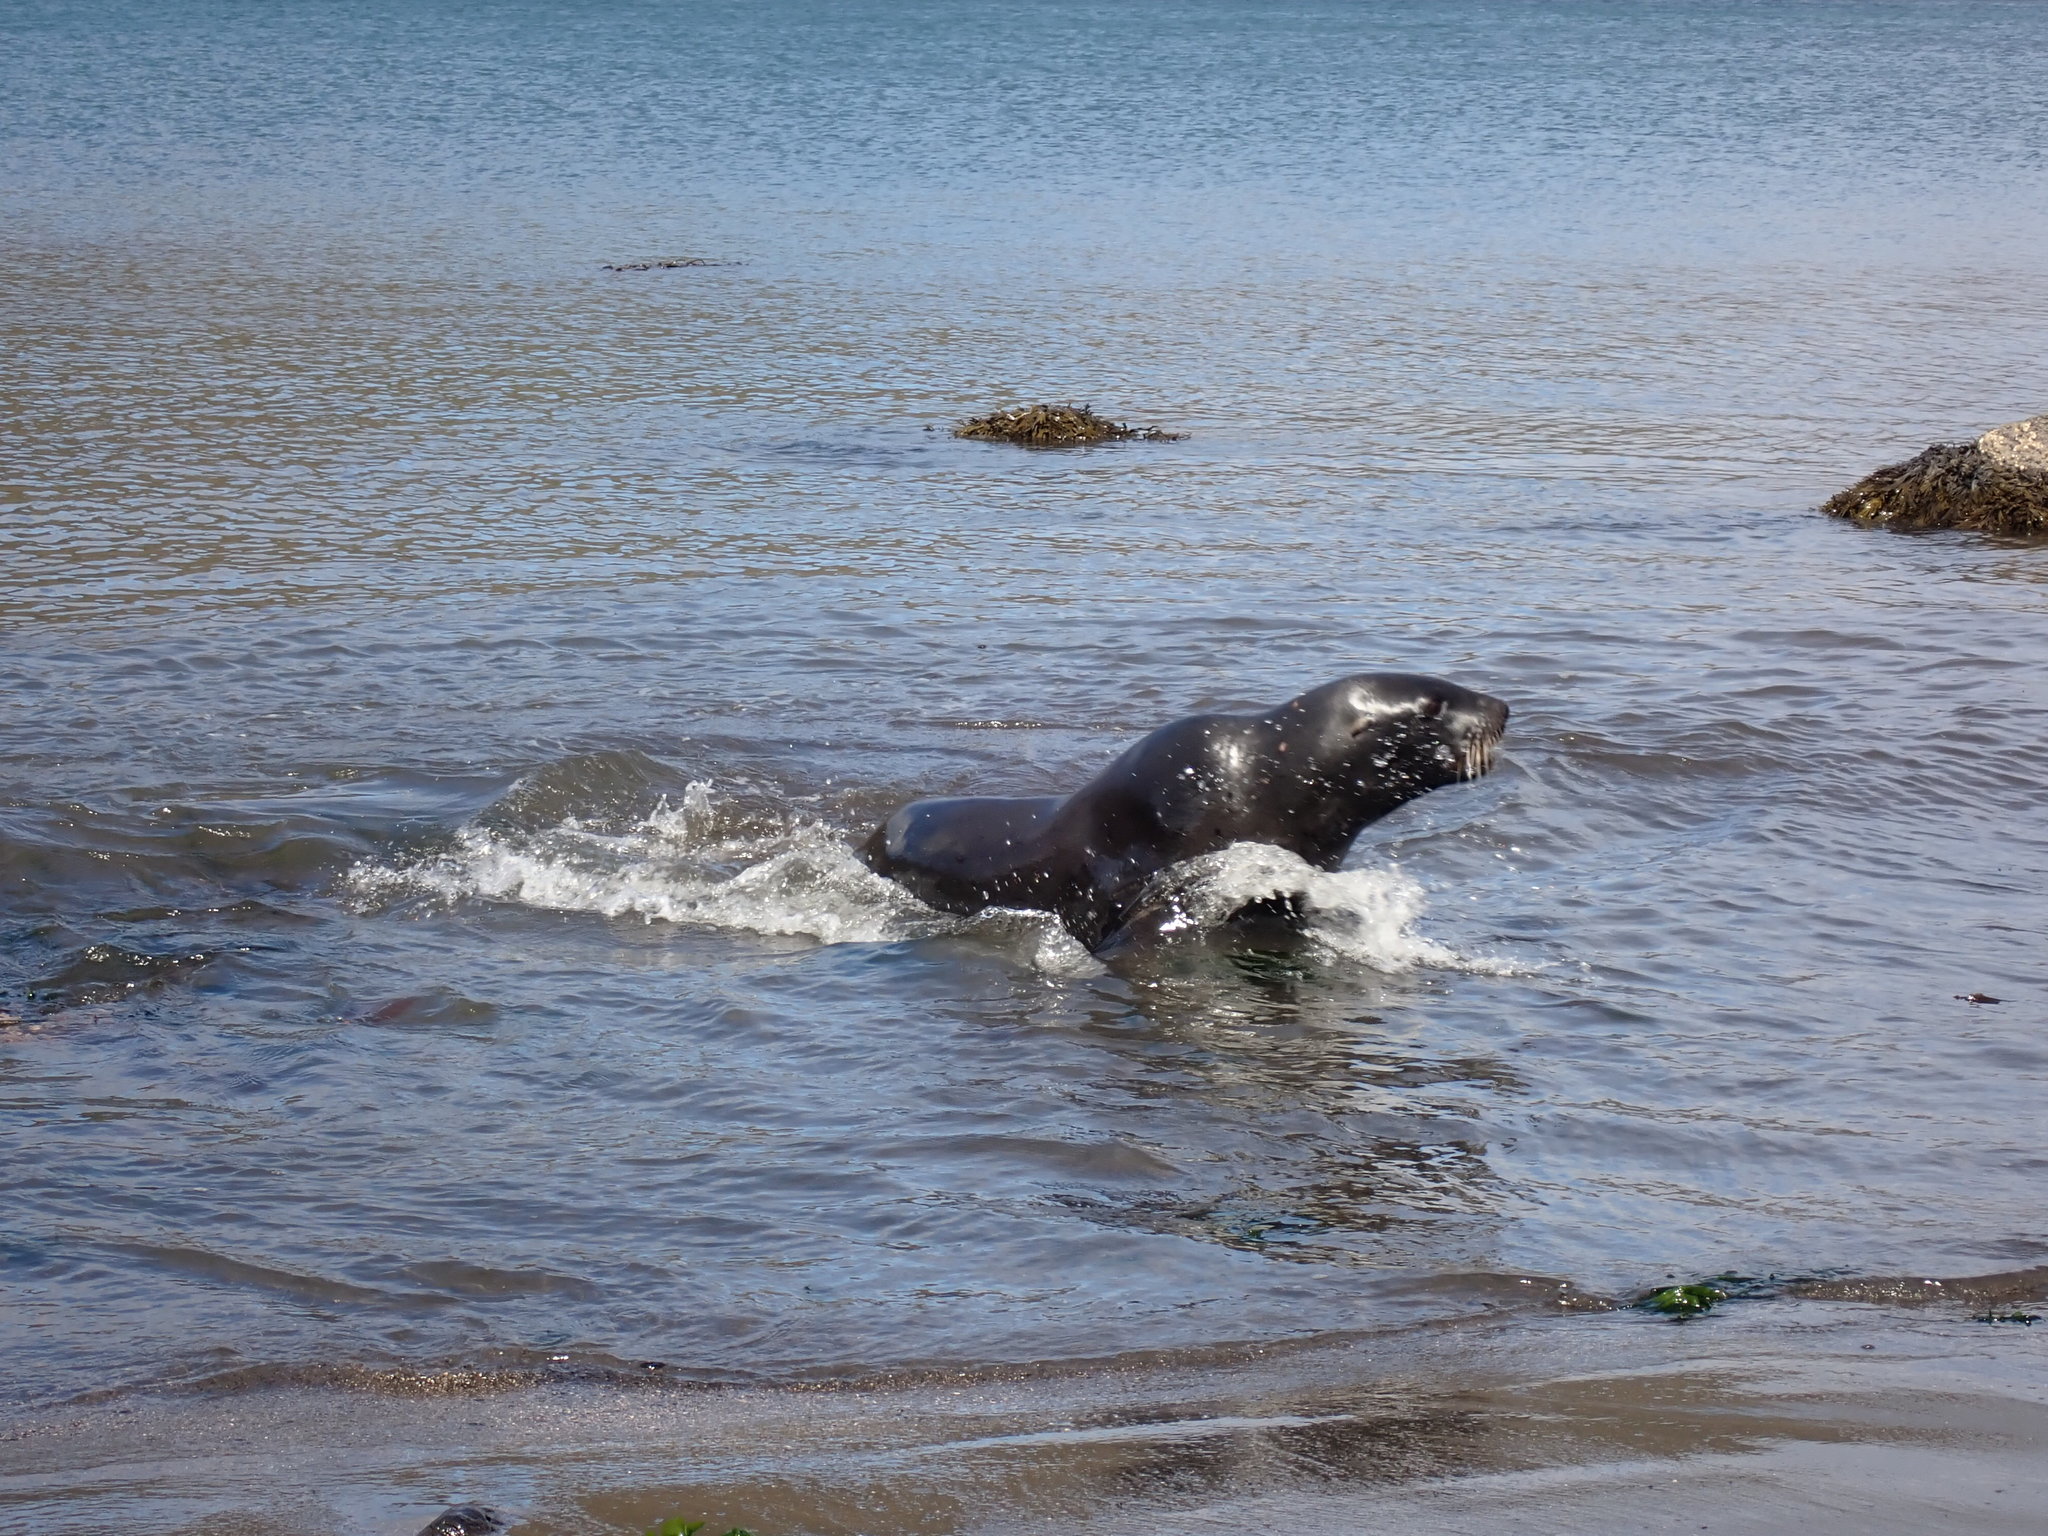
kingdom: Animalia
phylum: Chordata
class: Mammalia
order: Carnivora
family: Otariidae
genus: Phocarctos
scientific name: Phocarctos hookeri
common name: New zealand sea lion
